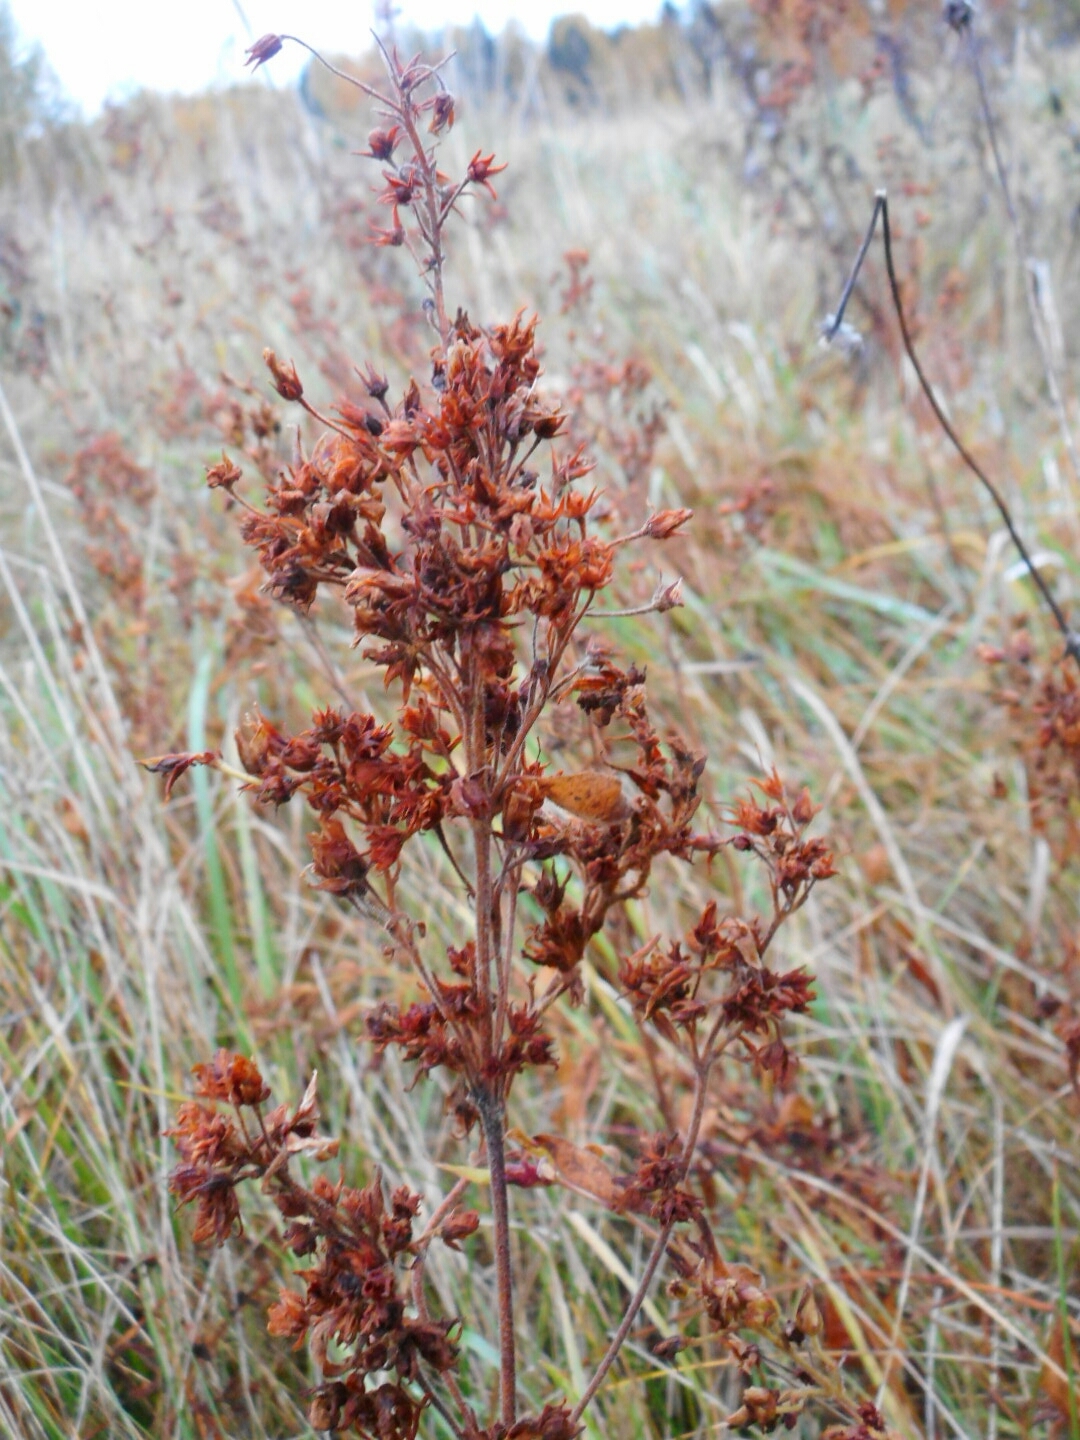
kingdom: Plantae
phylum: Tracheophyta
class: Magnoliopsida
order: Ericales
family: Primulaceae
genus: Lysimachia
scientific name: Lysimachia vulgaris
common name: Yellow loosestrife
